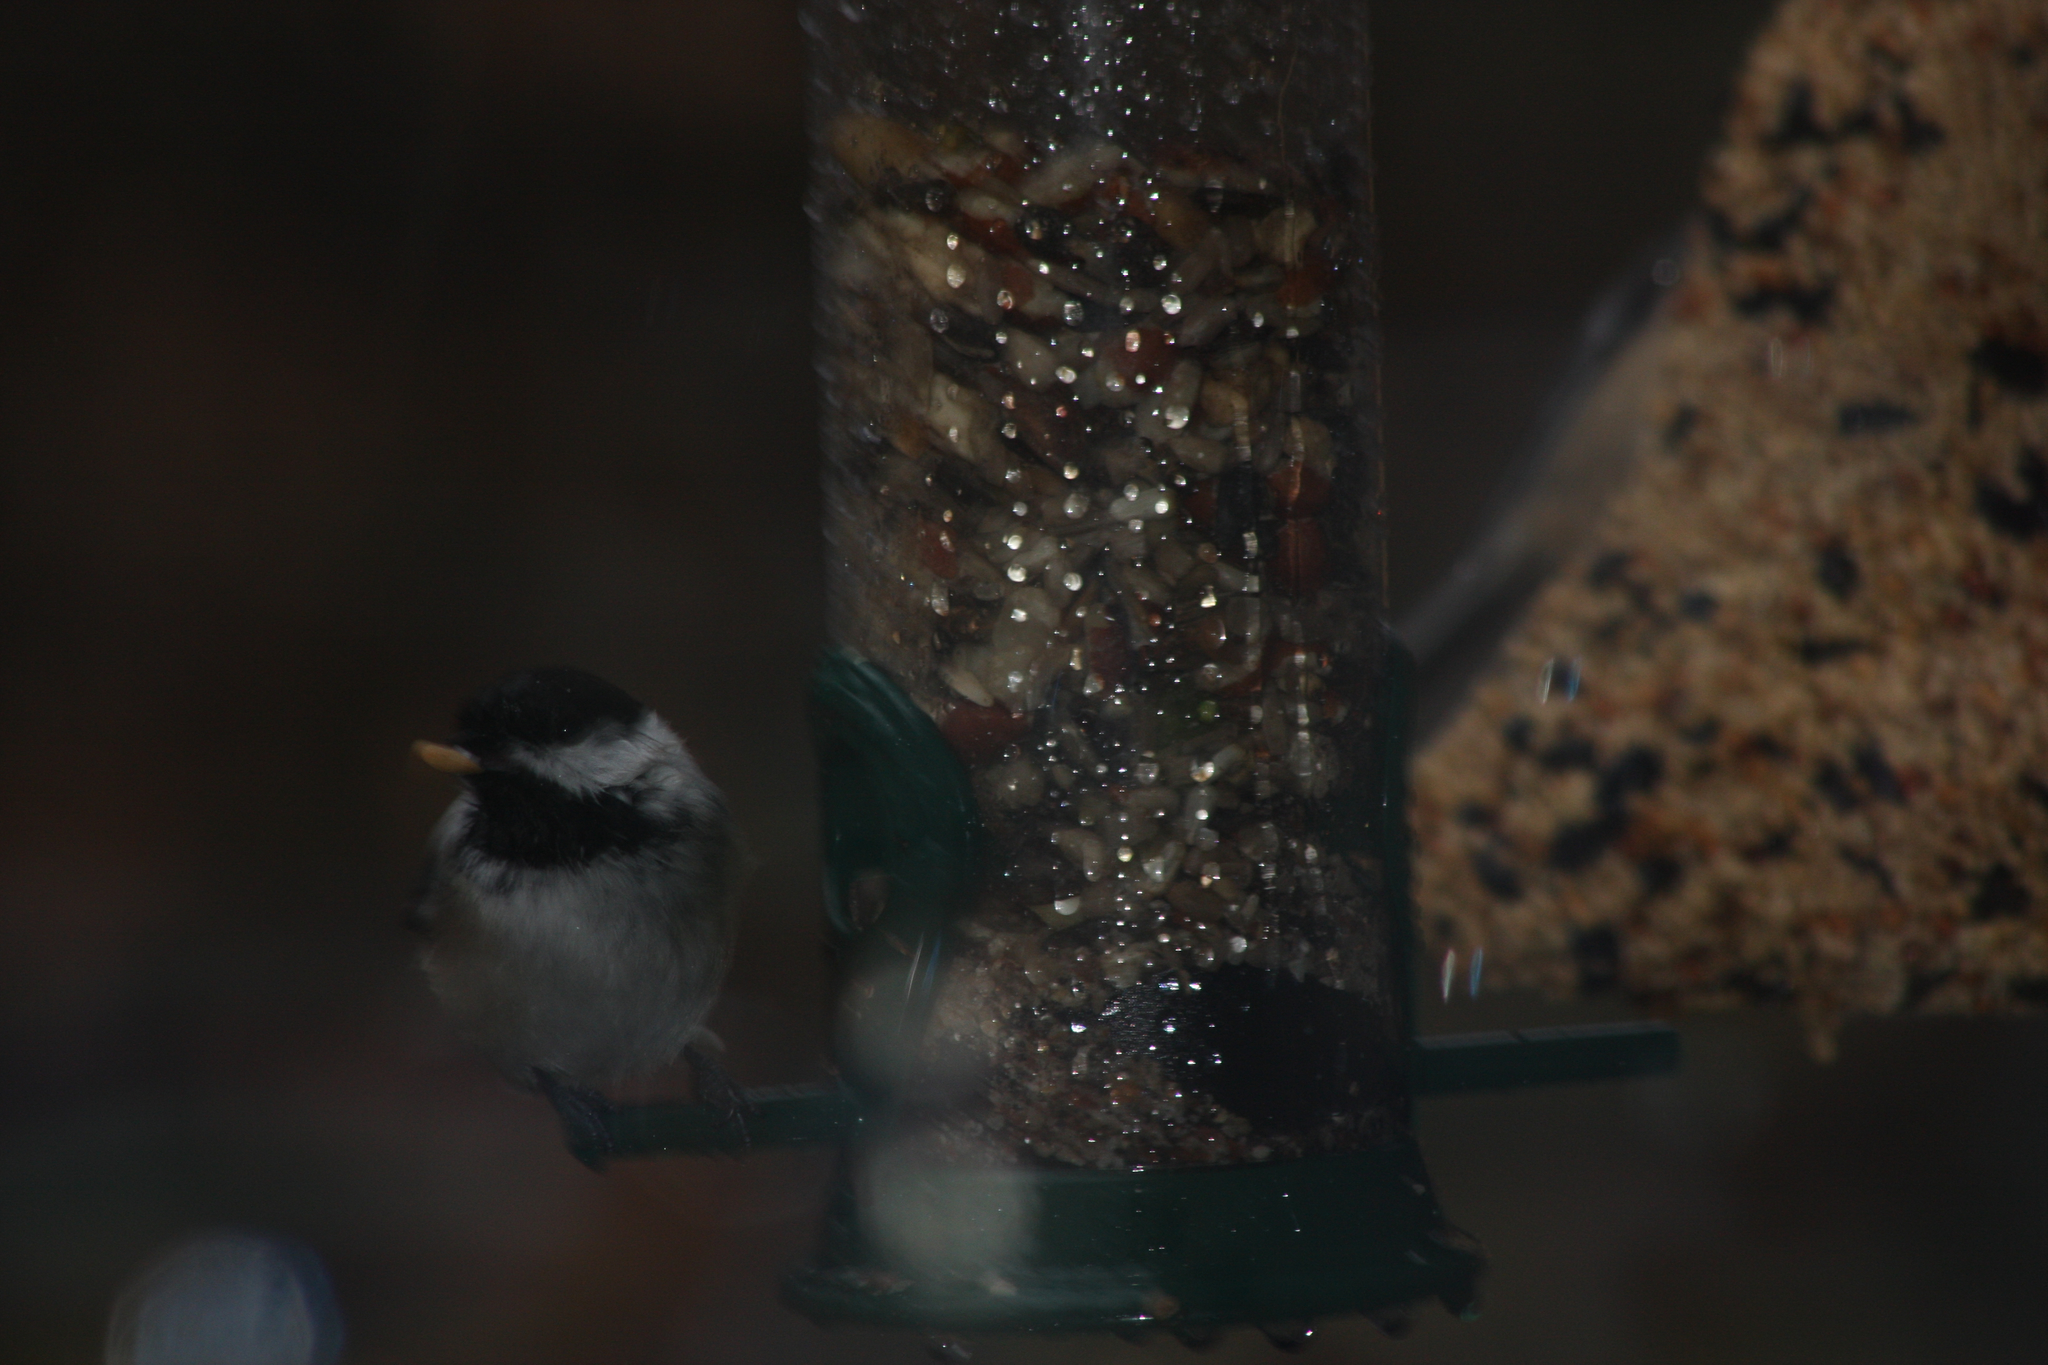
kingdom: Animalia
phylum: Chordata
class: Aves
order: Passeriformes
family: Paridae
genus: Poecile
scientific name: Poecile atricapillus
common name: Black-capped chickadee
